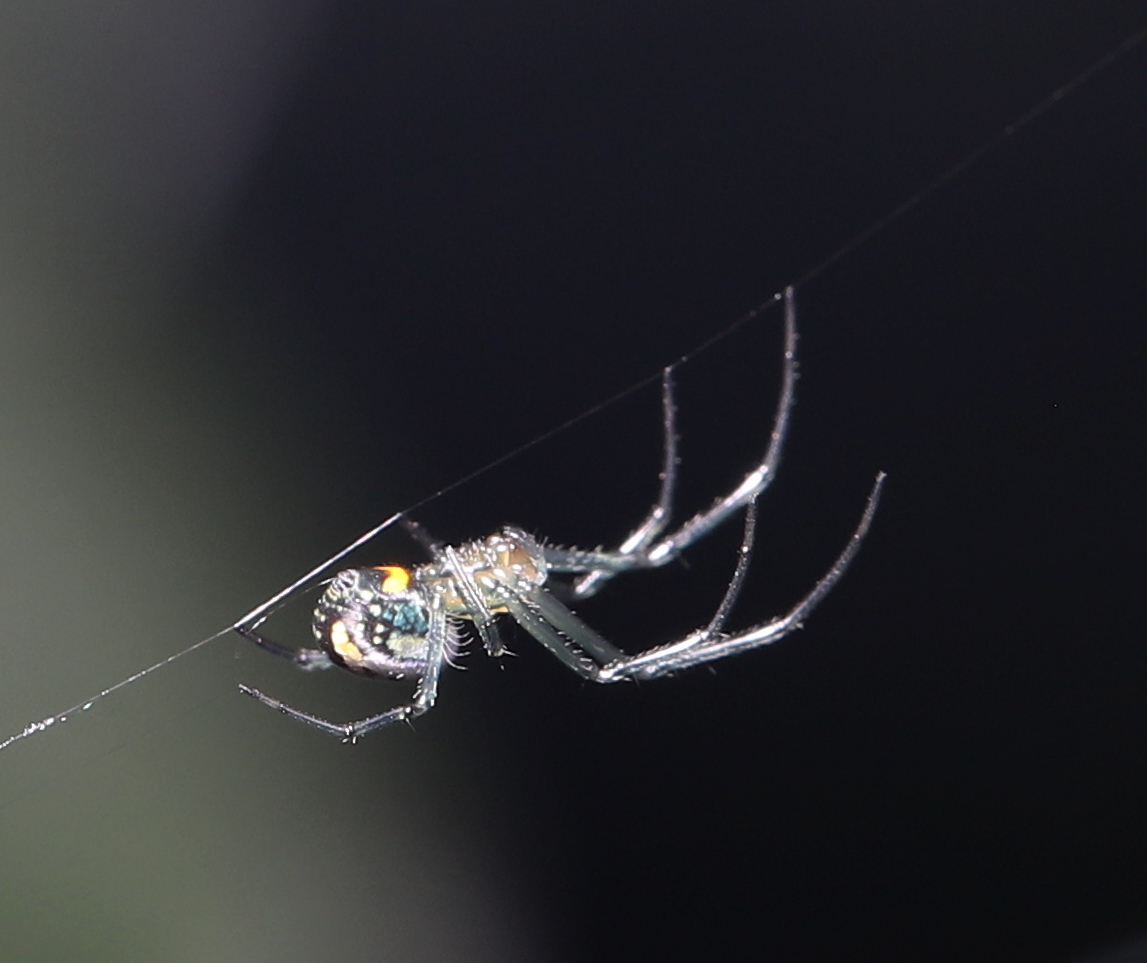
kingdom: Animalia
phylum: Arthropoda
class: Arachnida
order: Araneae
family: Tetragnathidae
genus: Leucauge
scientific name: Leucauge venusta
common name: Longjawed orb weavers
